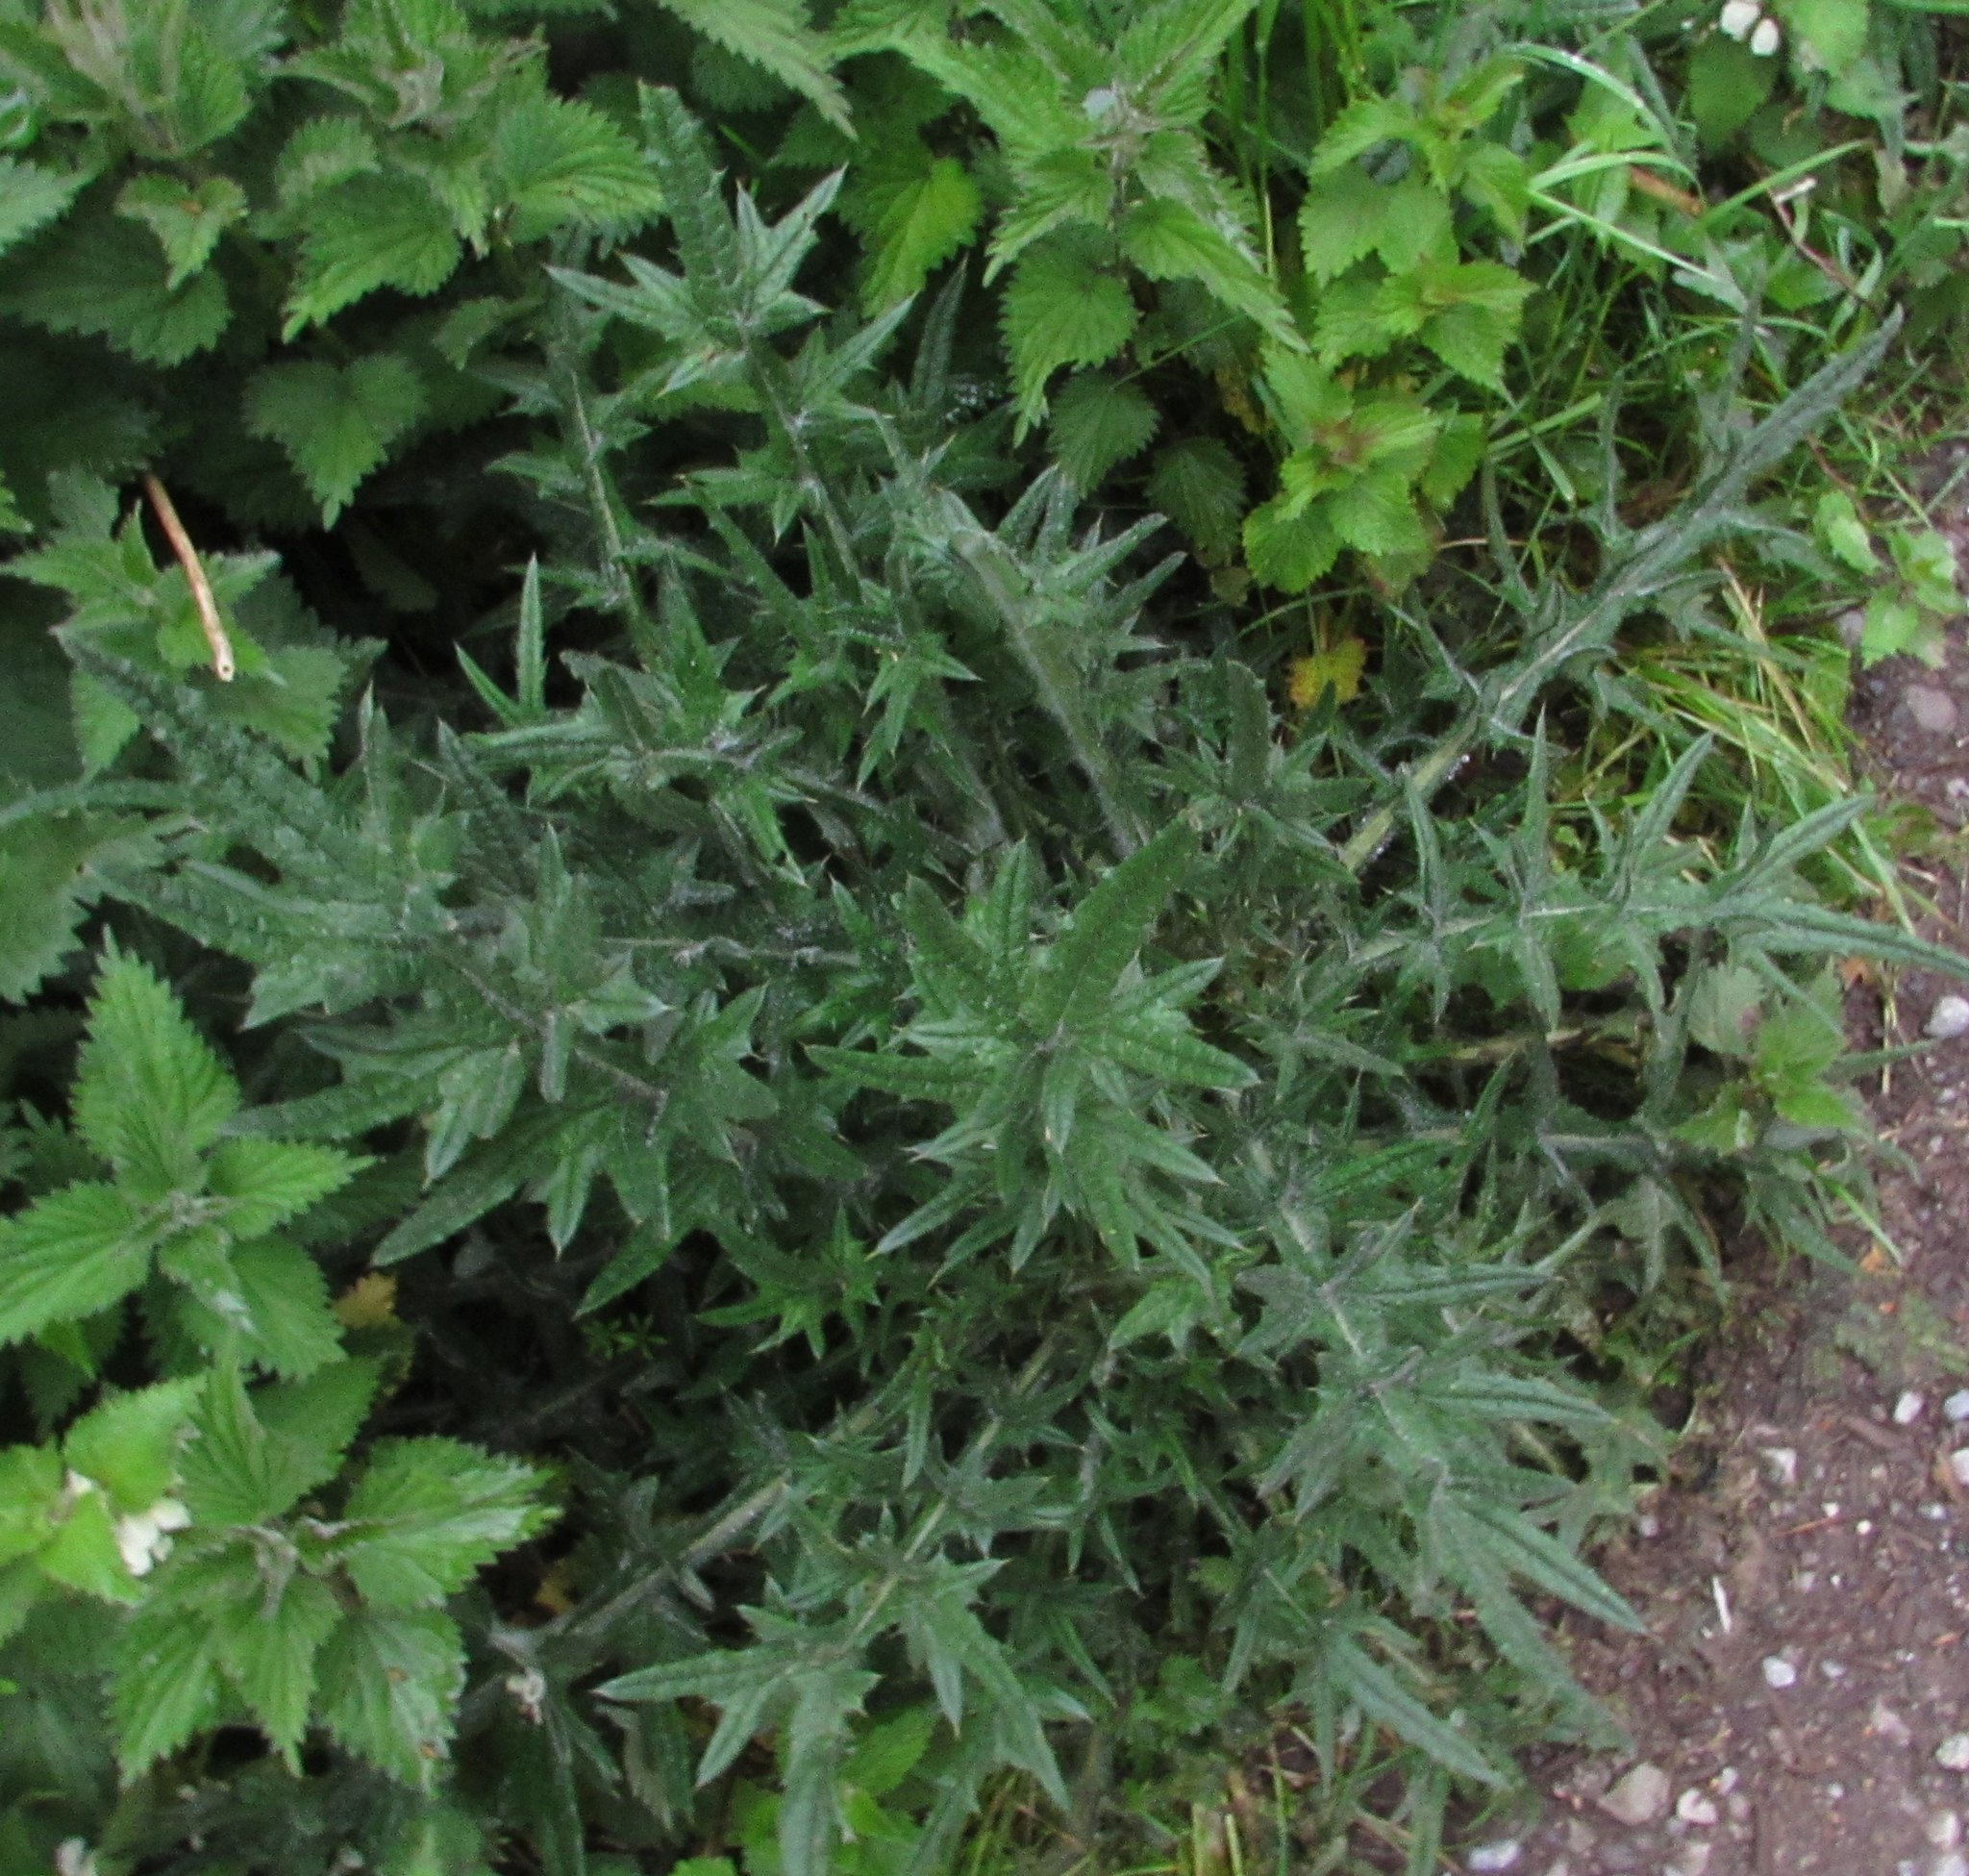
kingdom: Plantae
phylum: Tracheophyta
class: Magnoliopsida
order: Asterales
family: Asteraceae
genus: Cirsium
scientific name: Cirsium vulgare
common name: Bull thistle
